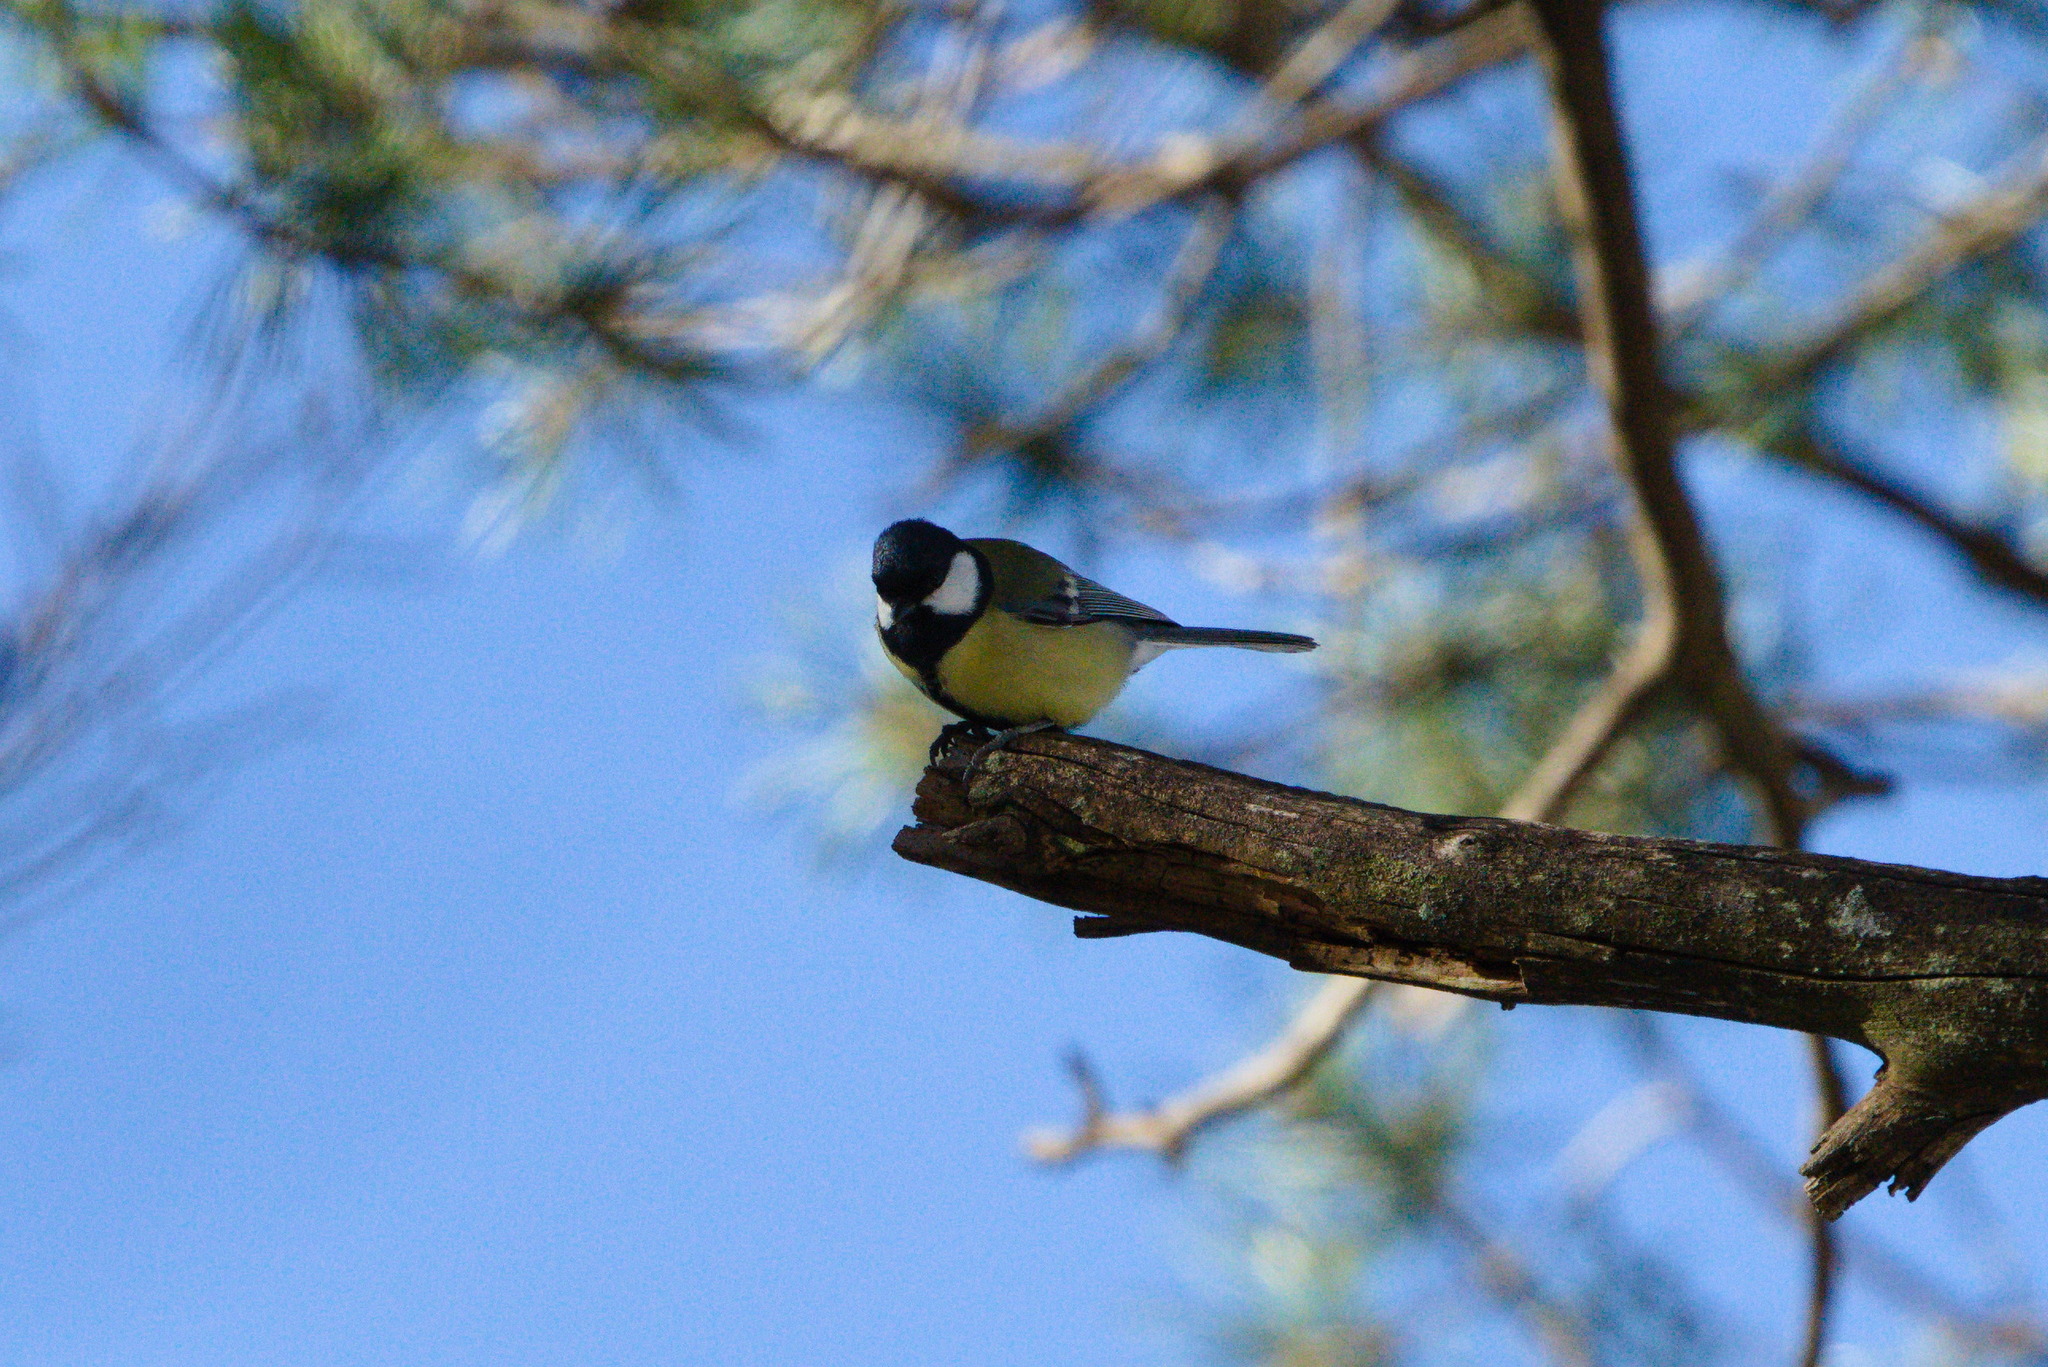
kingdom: Animalia
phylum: Chordata
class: Aves
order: Passeriformes
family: Paridae
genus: Parus
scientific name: Parus major
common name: Great tit
